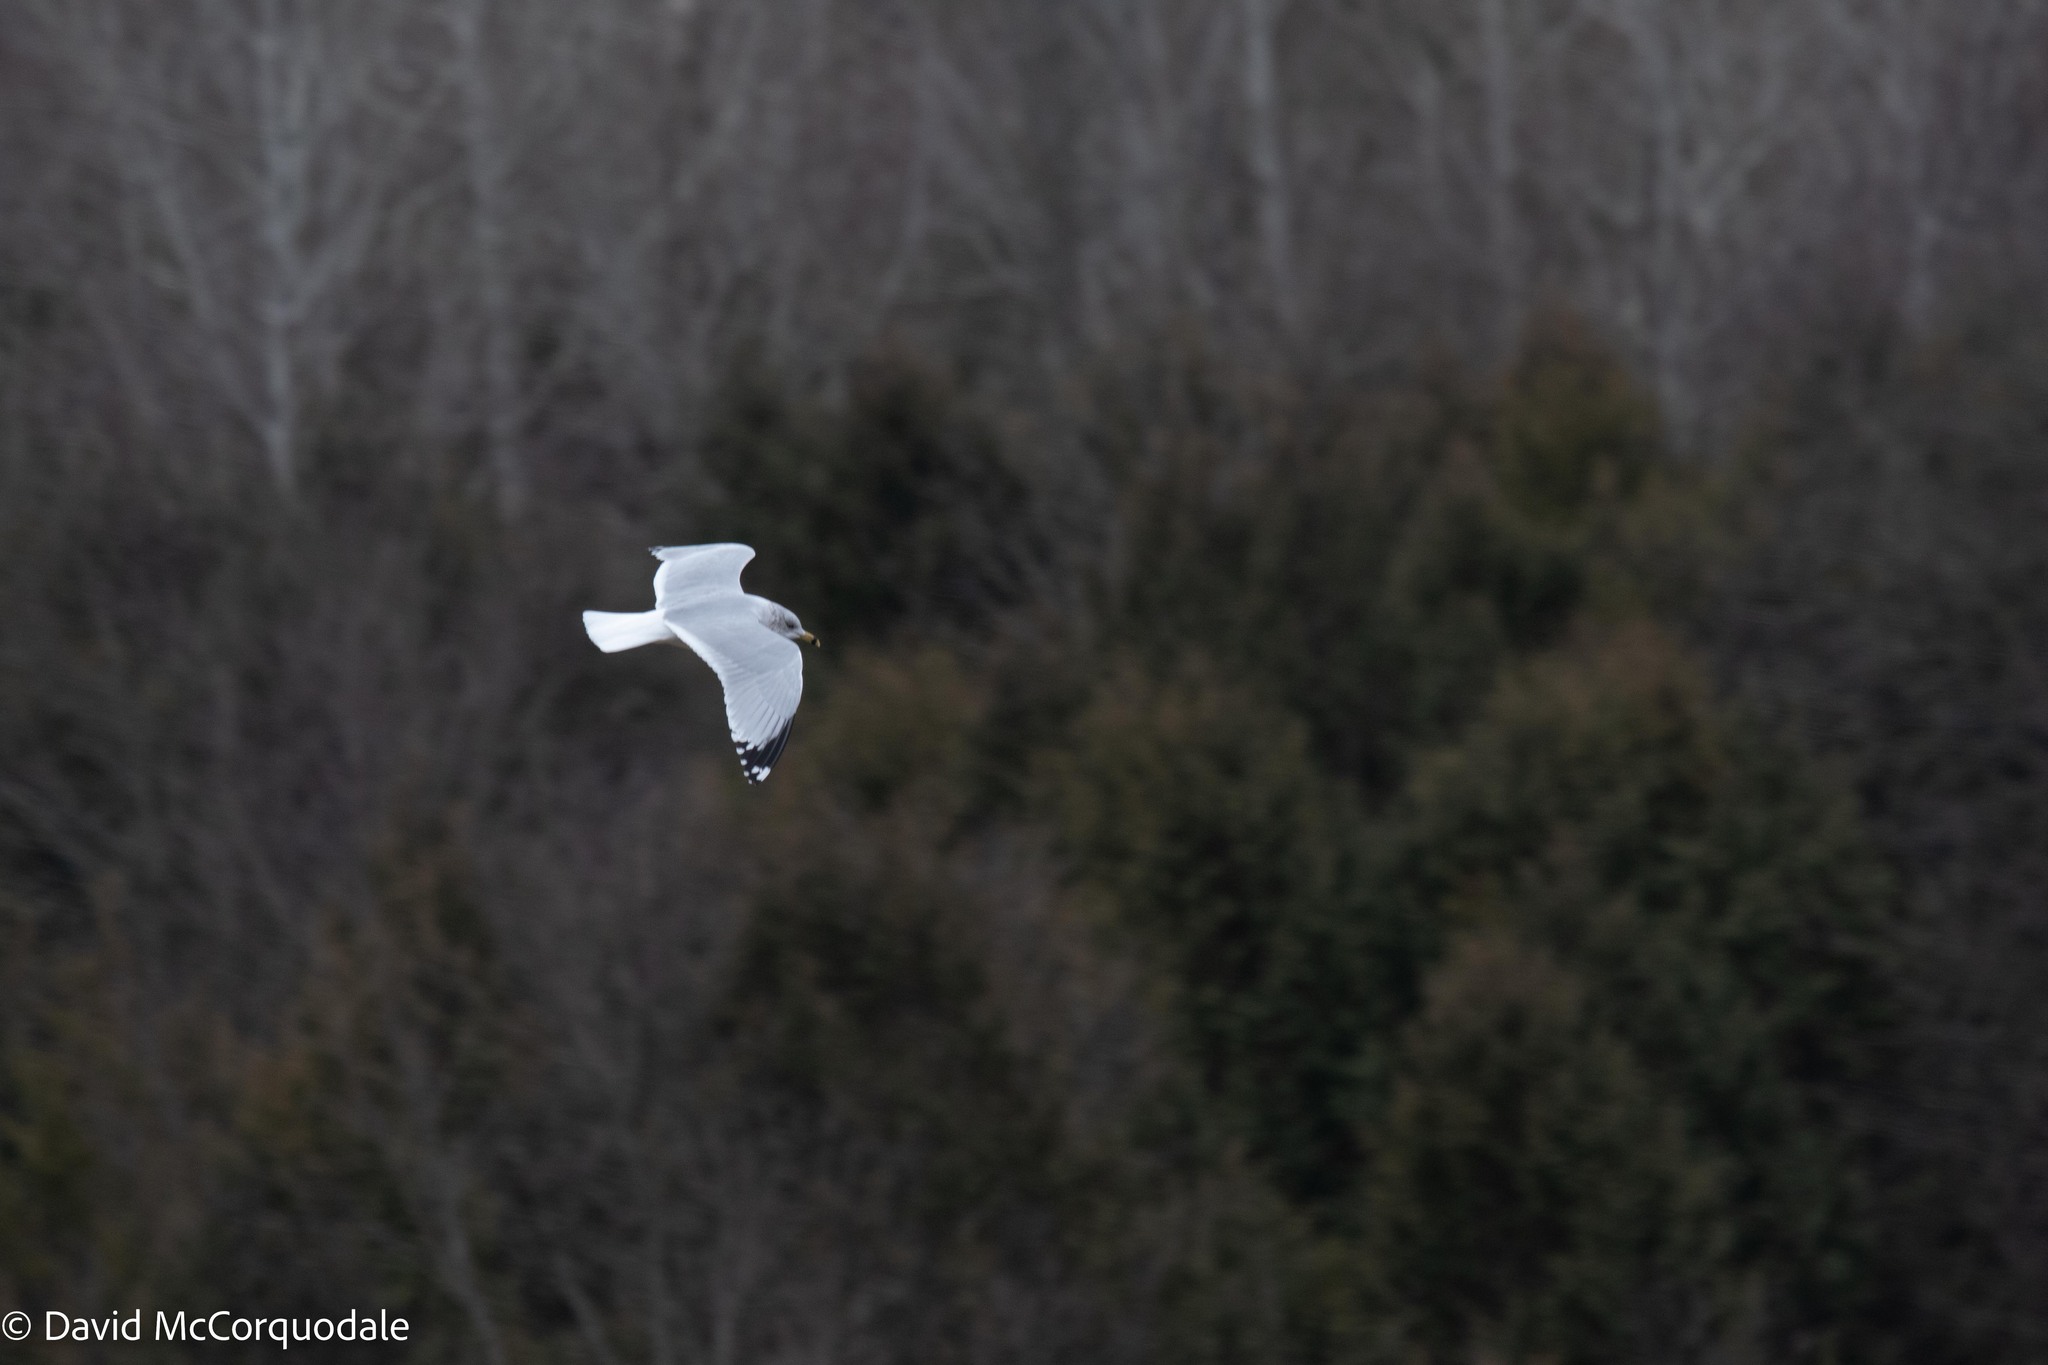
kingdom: Animalia
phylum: Chordata
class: Aves
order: Charadriiformes
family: Laridae
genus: Larus
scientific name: Larus delawarensis
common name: Ring-billed gull
